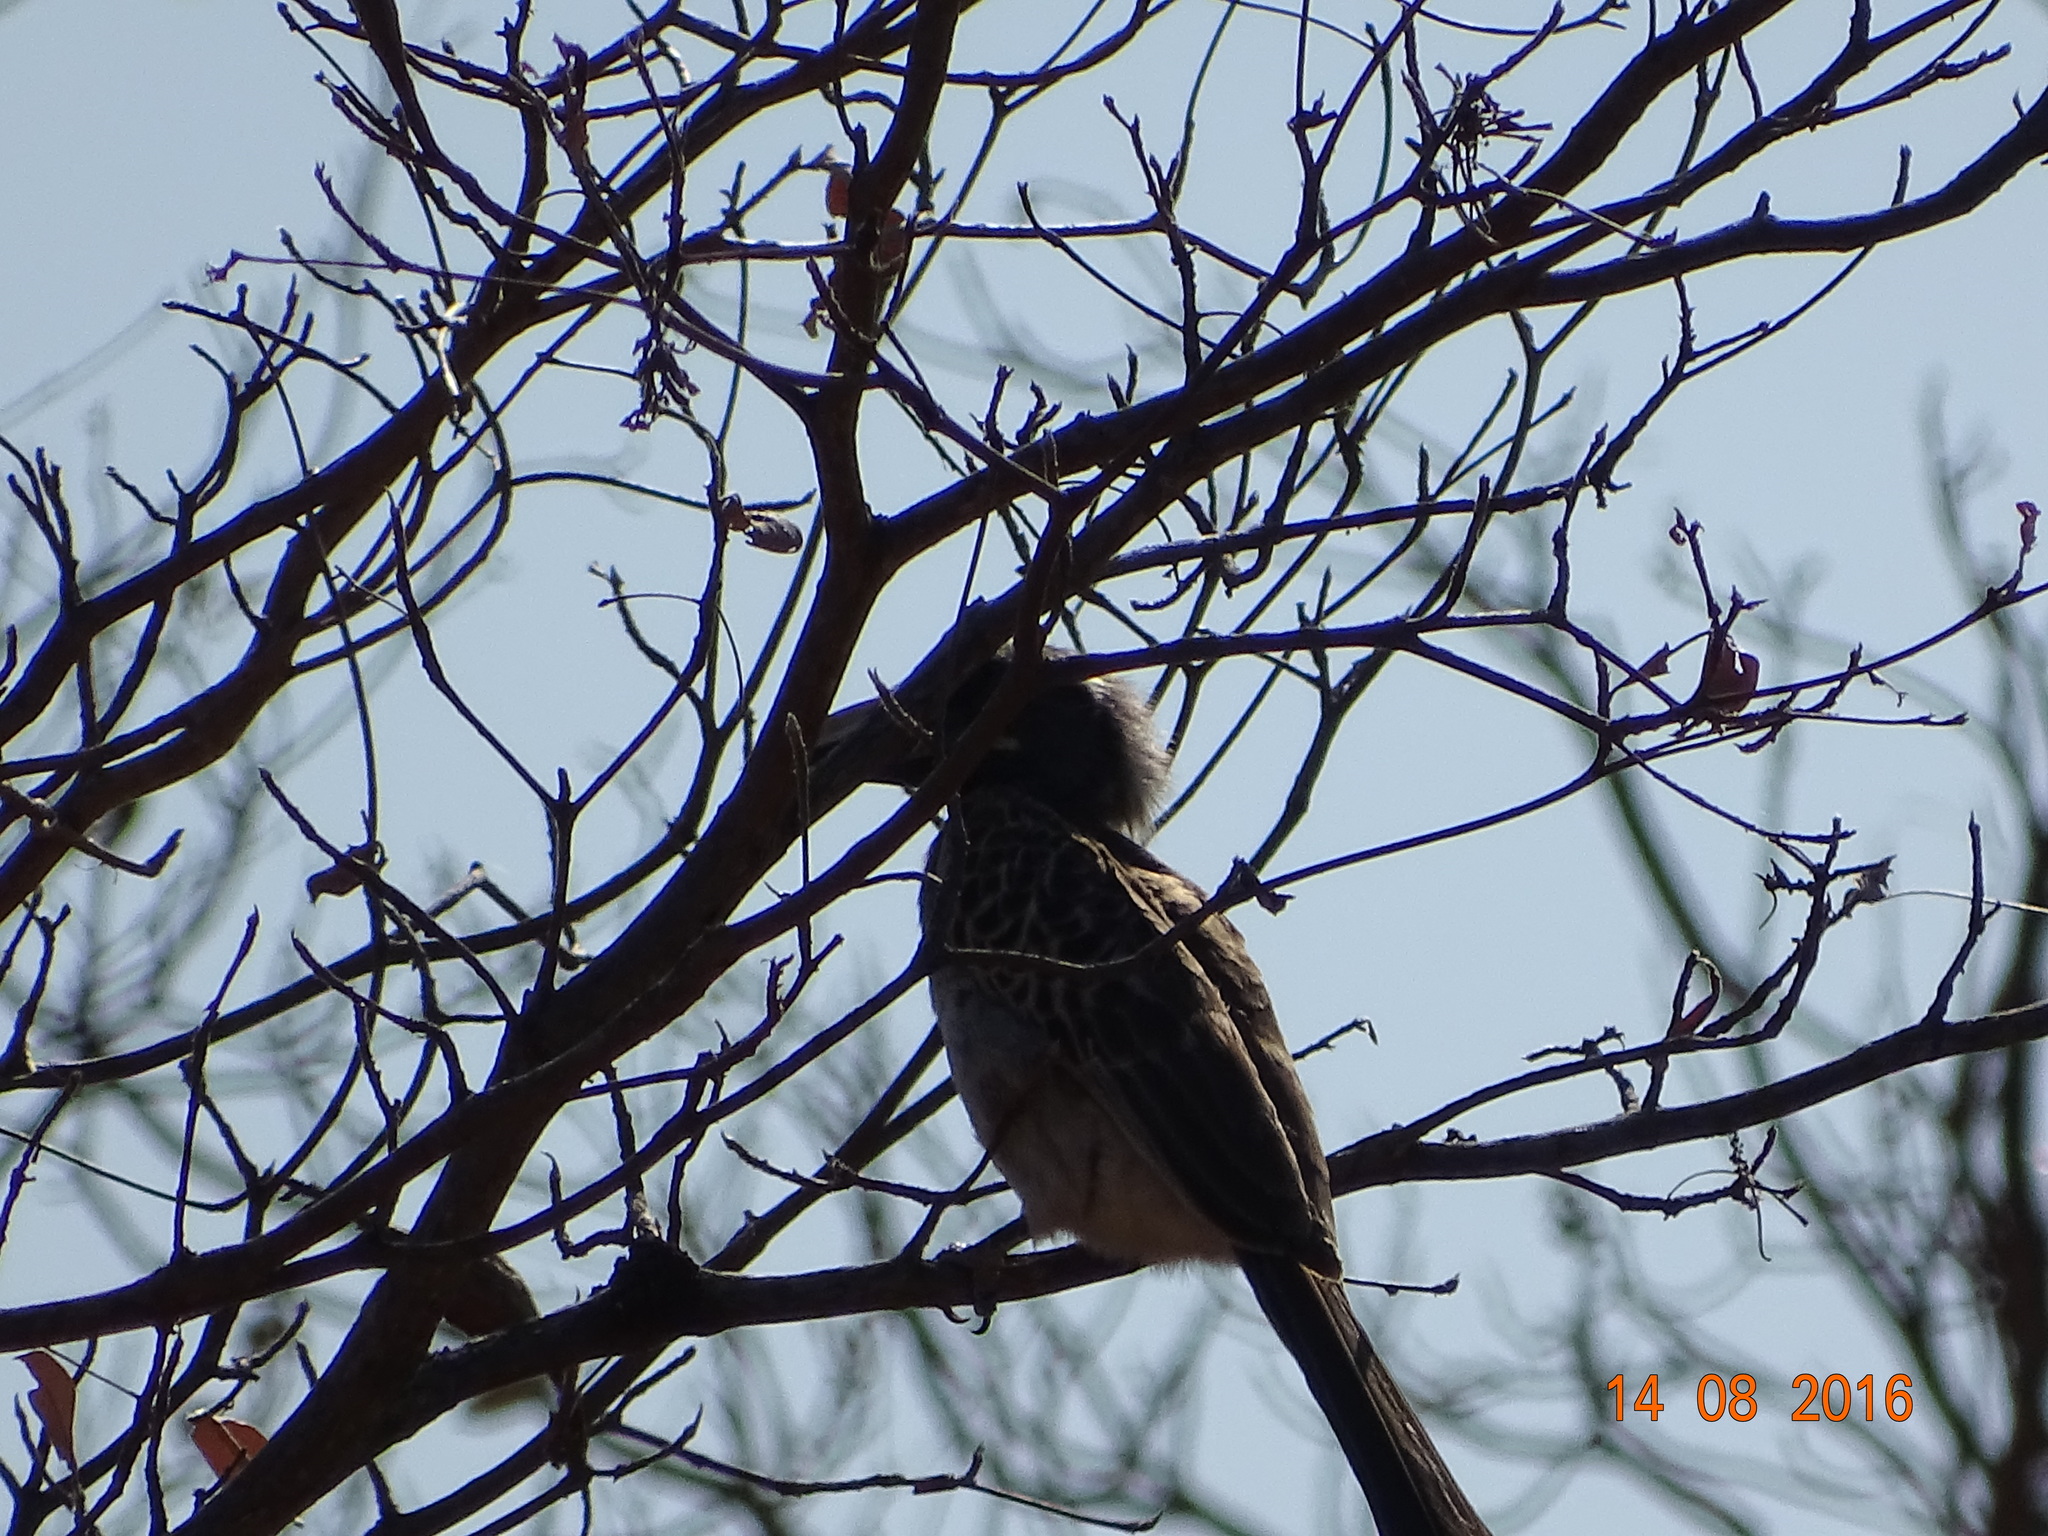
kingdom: Animalia
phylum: Chordata
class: Aves
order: Bucerotiformes
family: Bucerotidae
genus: Lophoceros
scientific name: Lophoceros nasutus
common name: African grey hornbill
